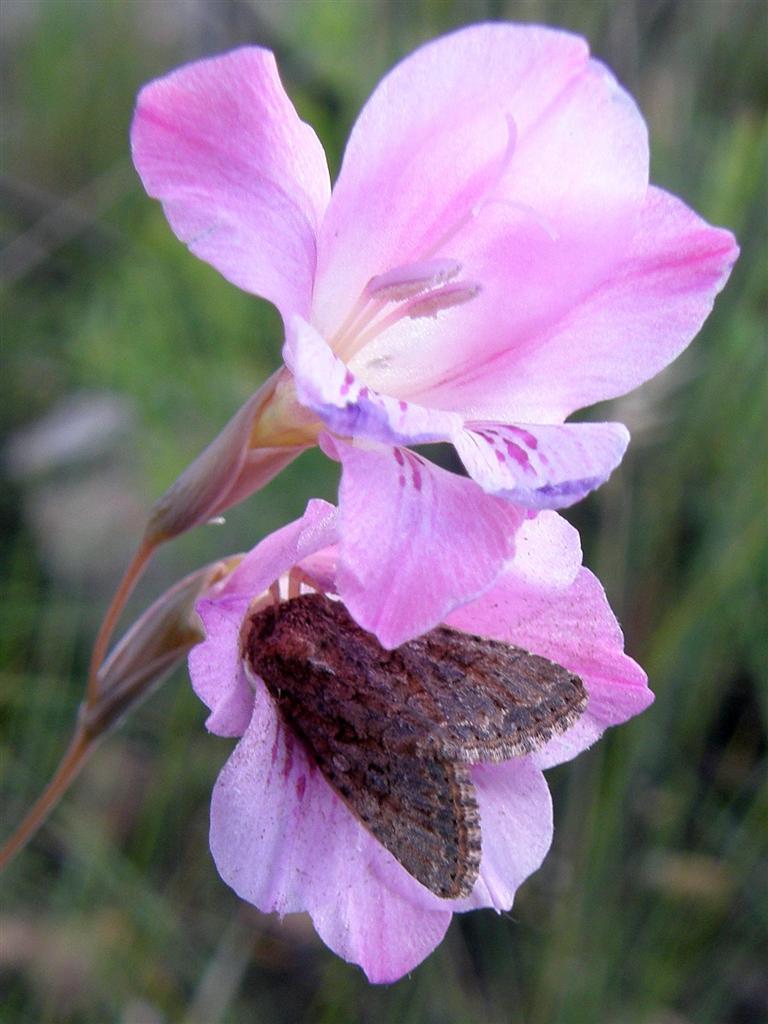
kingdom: Plantae
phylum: Tracheophyta
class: Liliopsida
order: Asparagales
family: Iridaceae
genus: Gladiolus
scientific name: Gladiolus hirsutus
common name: Small pink afrikaner
